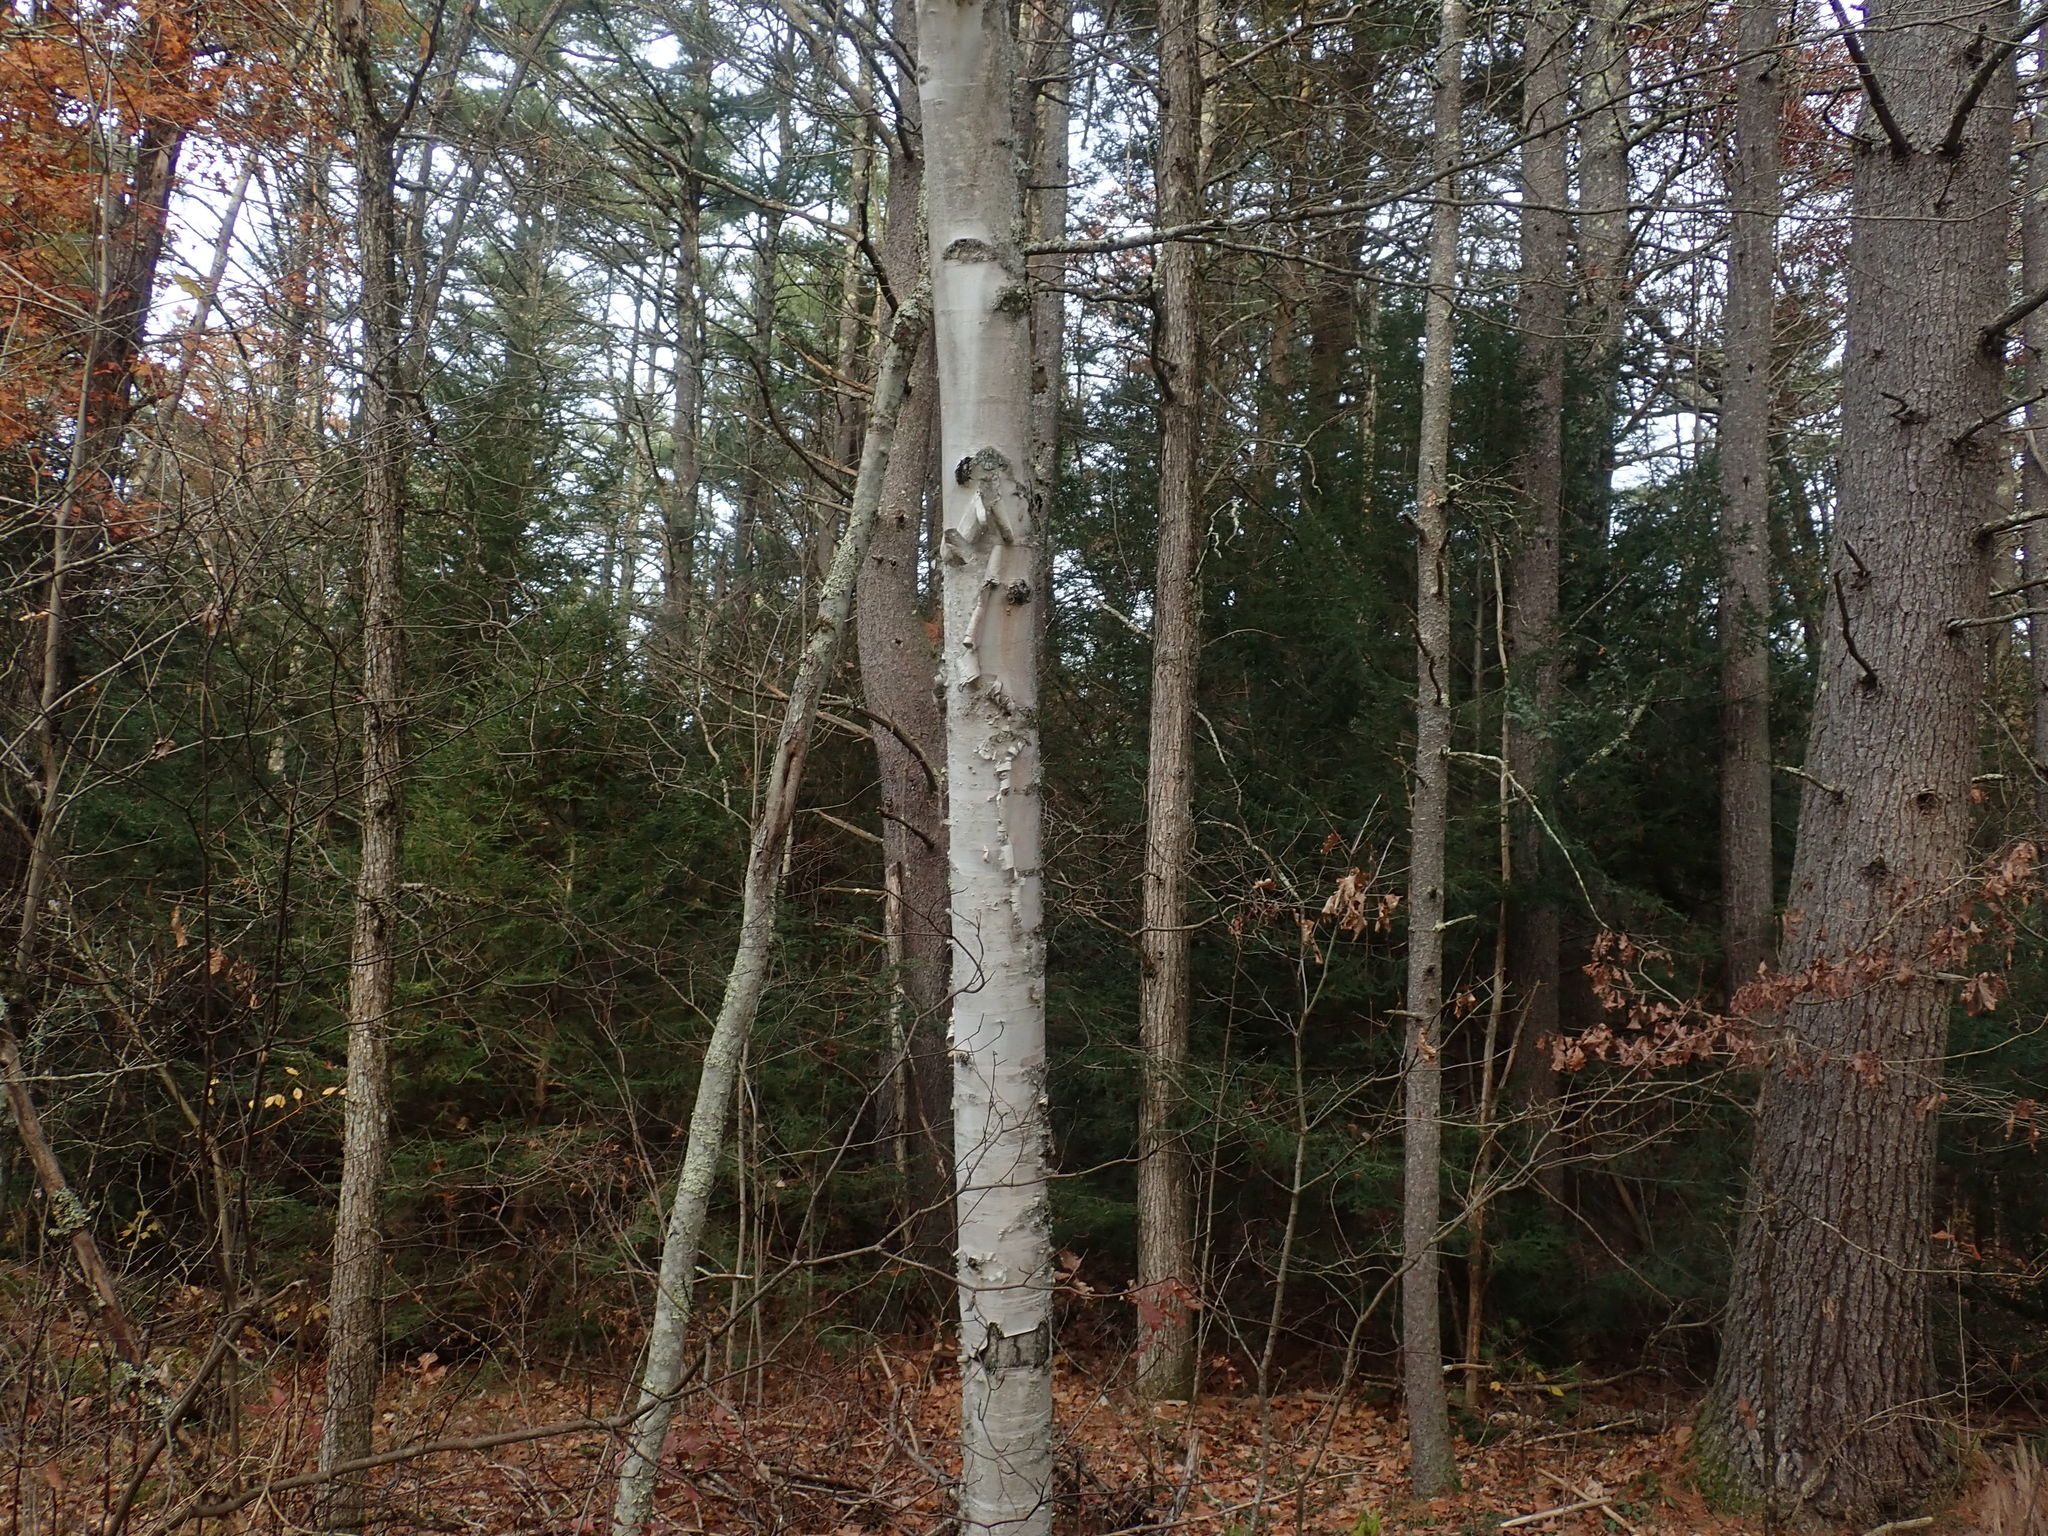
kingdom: Plantae
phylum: Tracheophyta
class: Magnoliopsida
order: Fagales
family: Betulaceae
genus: Betula
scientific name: Betula papyrifera
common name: Paper birch
